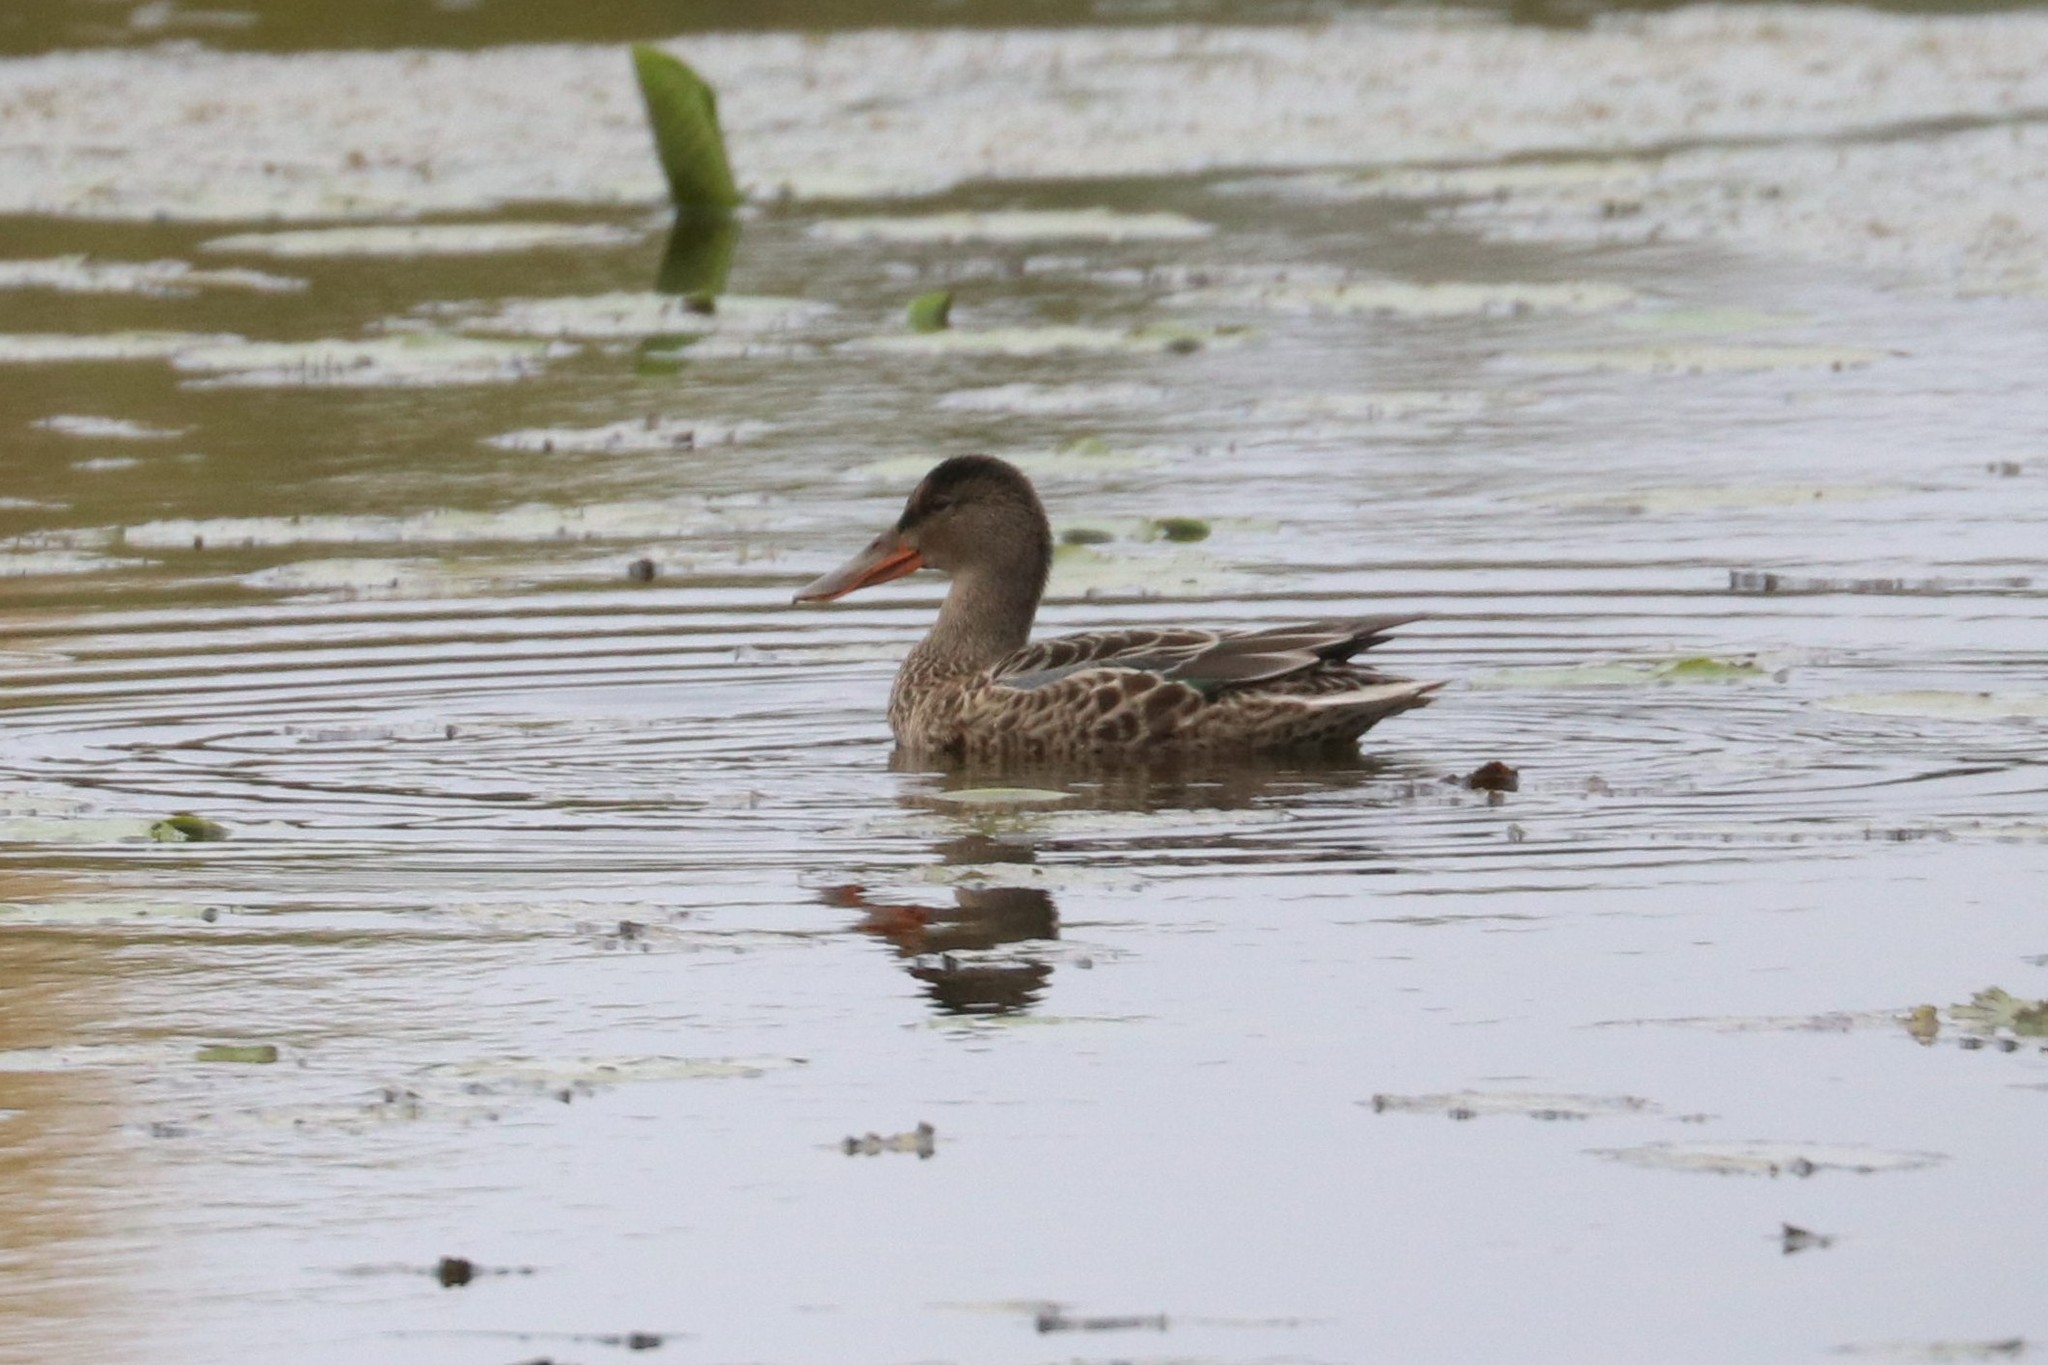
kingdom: Animalia
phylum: Chordata
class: Aves
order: Anseriformes
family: Anatidae
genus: Spatula
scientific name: Spatula clypeata
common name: Northern shoveler
